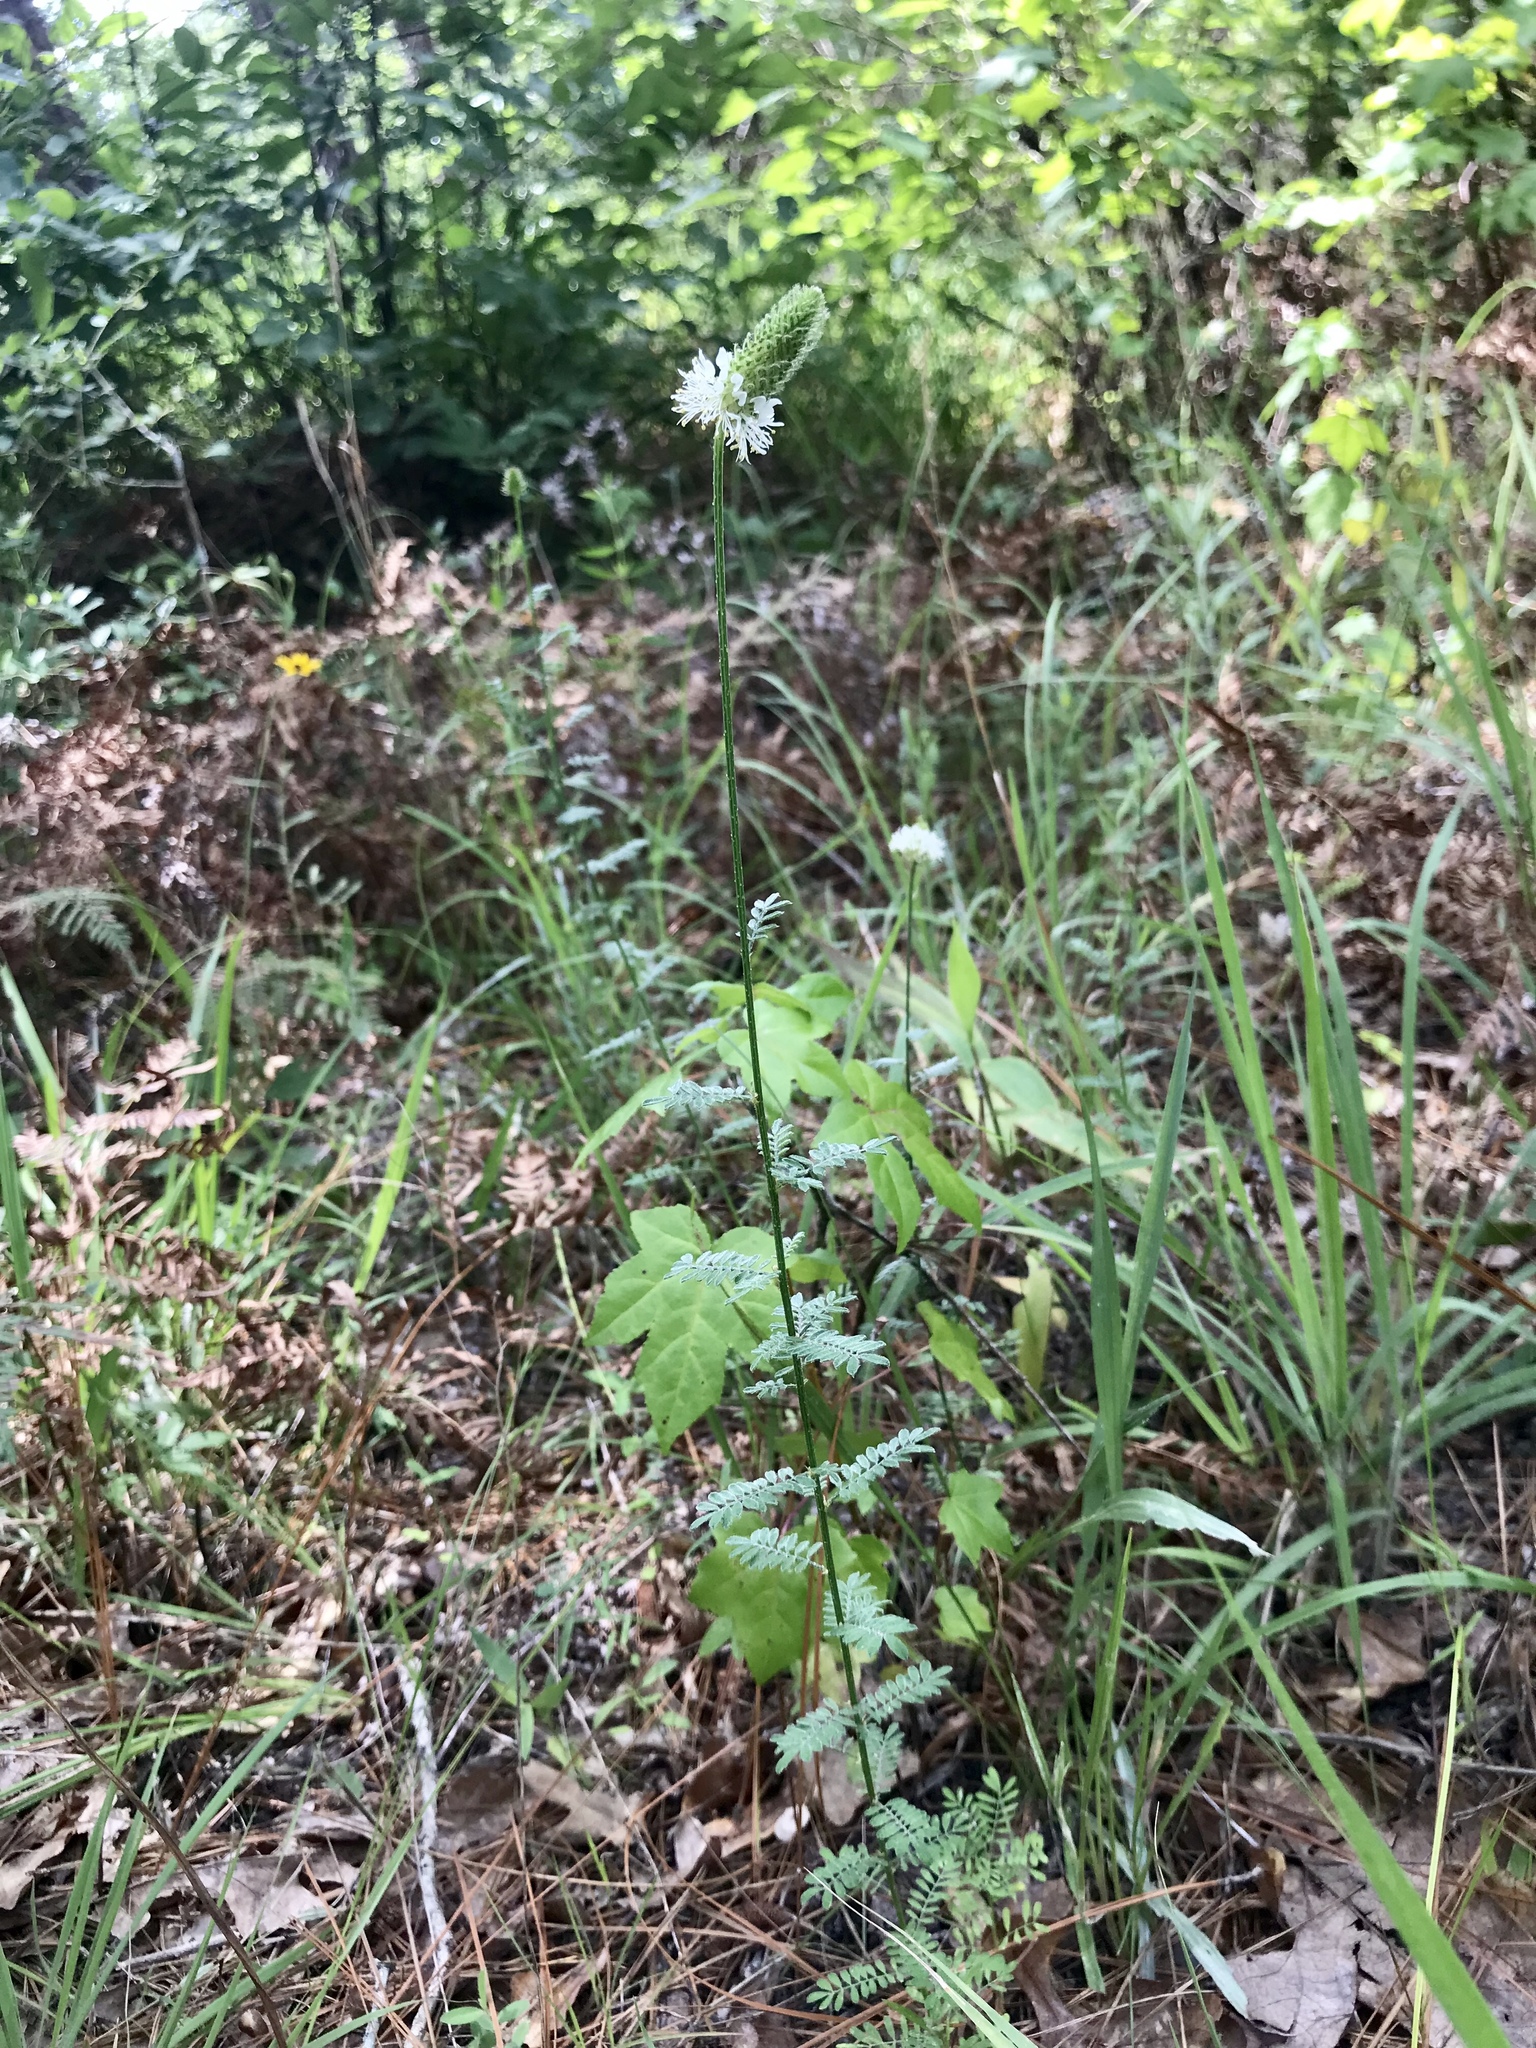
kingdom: Plantae
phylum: Tracheophyta
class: Magnoliopsida
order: Fabales
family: Fabaceae
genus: Dalea
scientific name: Dalea phleoides
